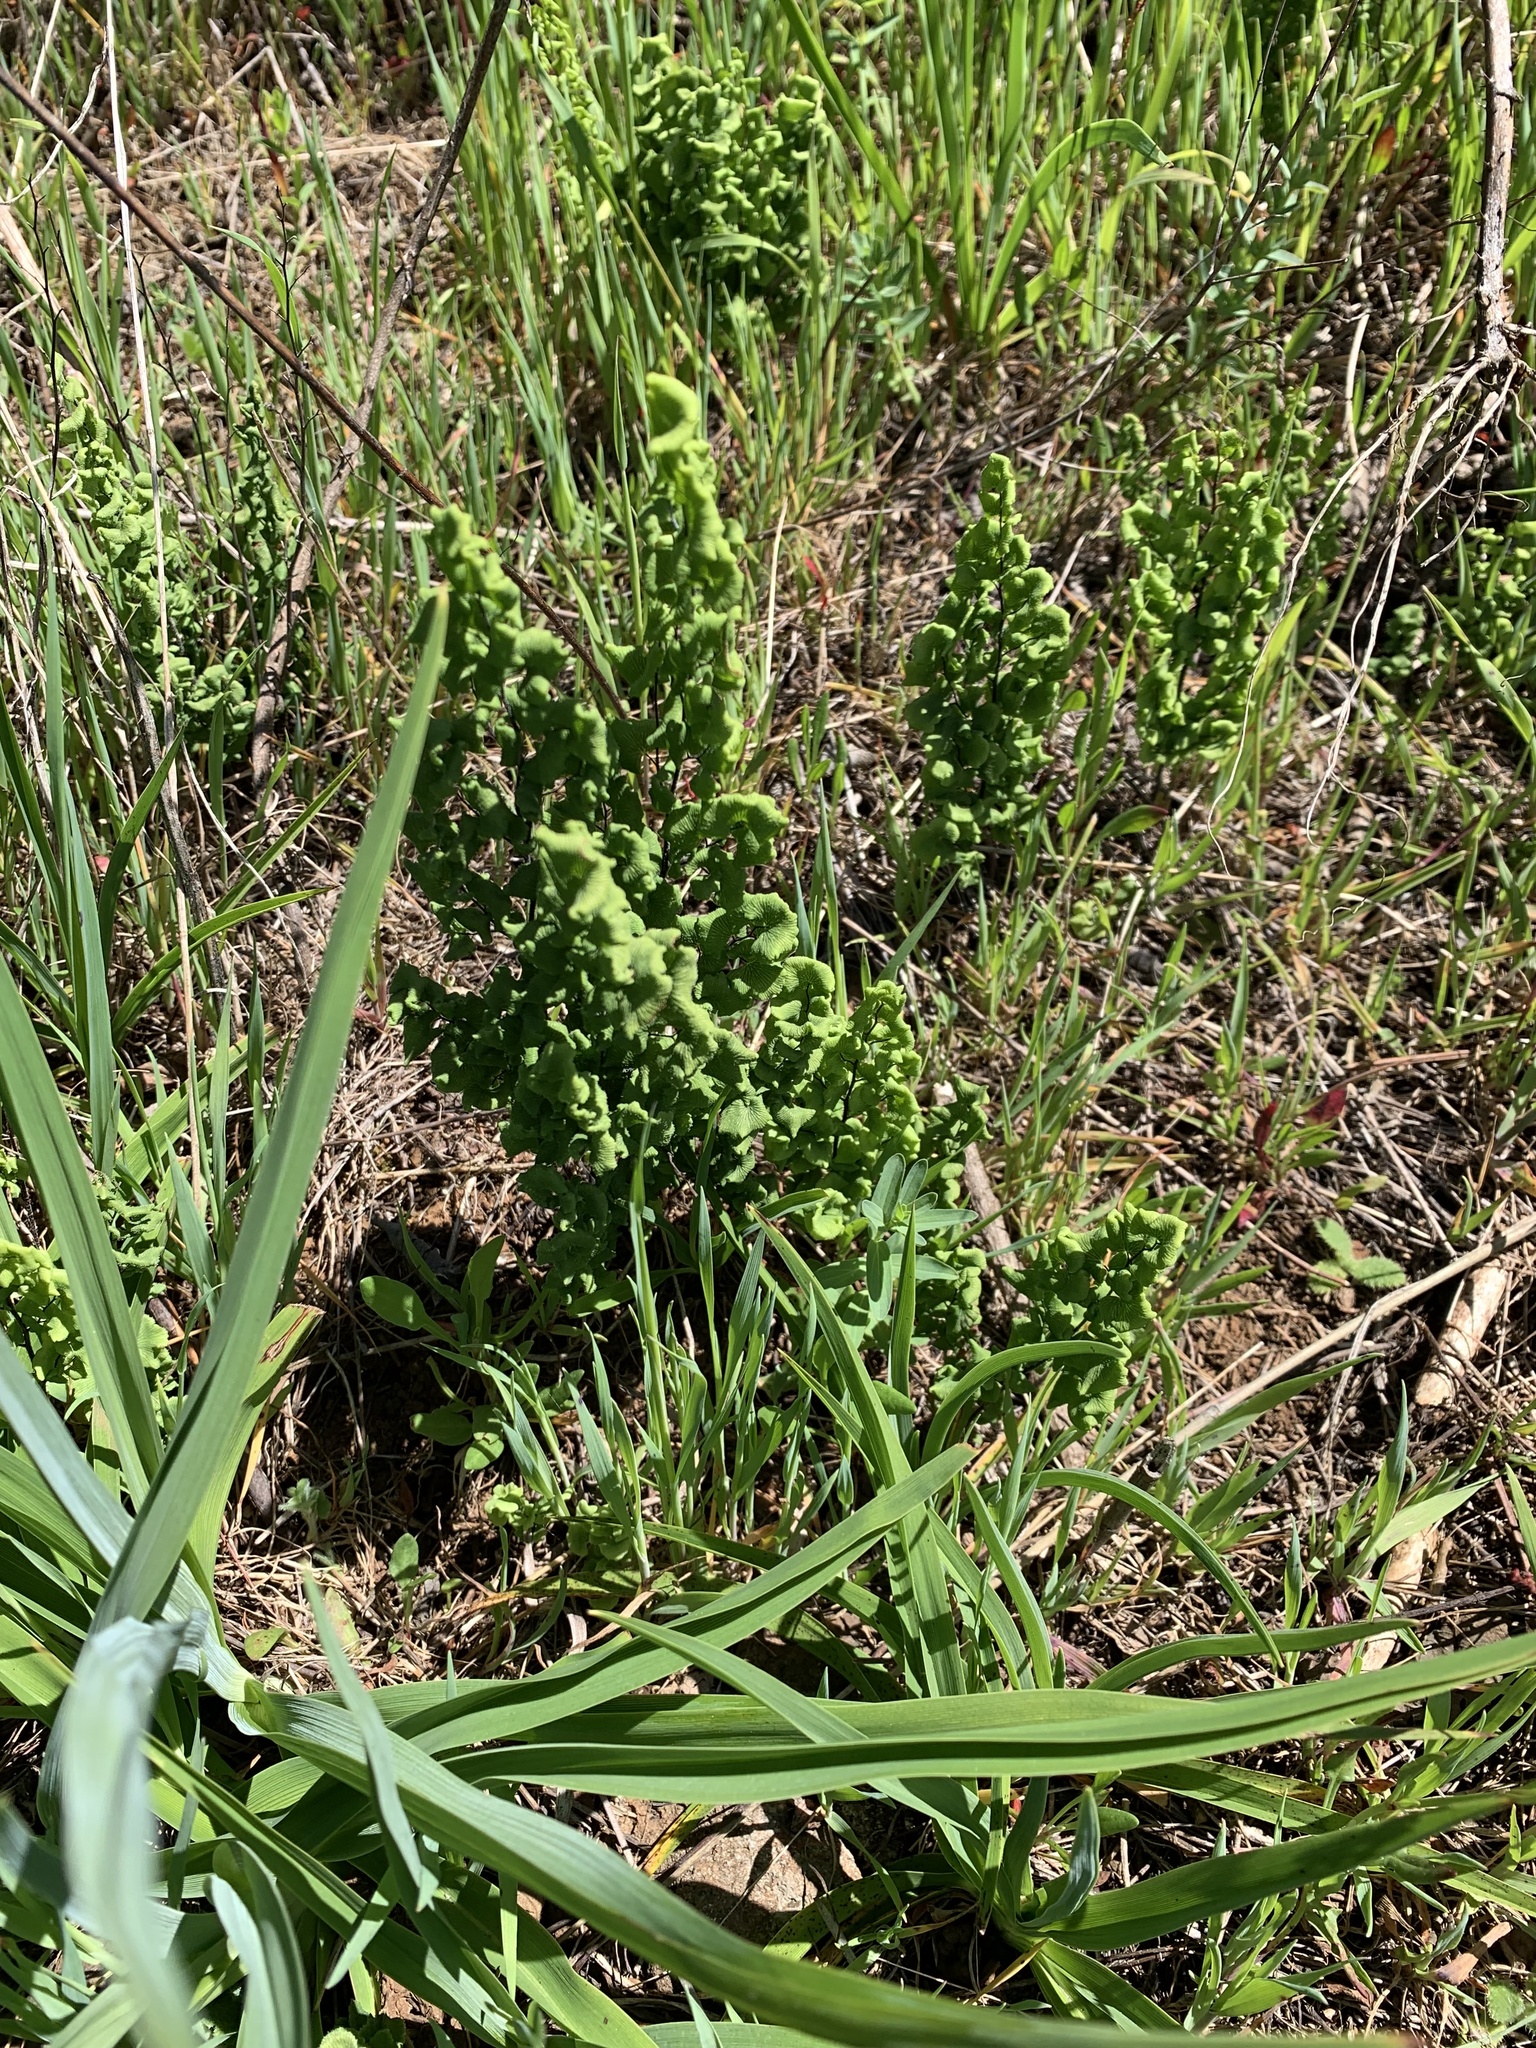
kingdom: Plantae
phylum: Tracheophyta
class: Polypodiopsida
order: Polypodiales
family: Pteridaceae
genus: Adiantum
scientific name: Adiantum chilense
